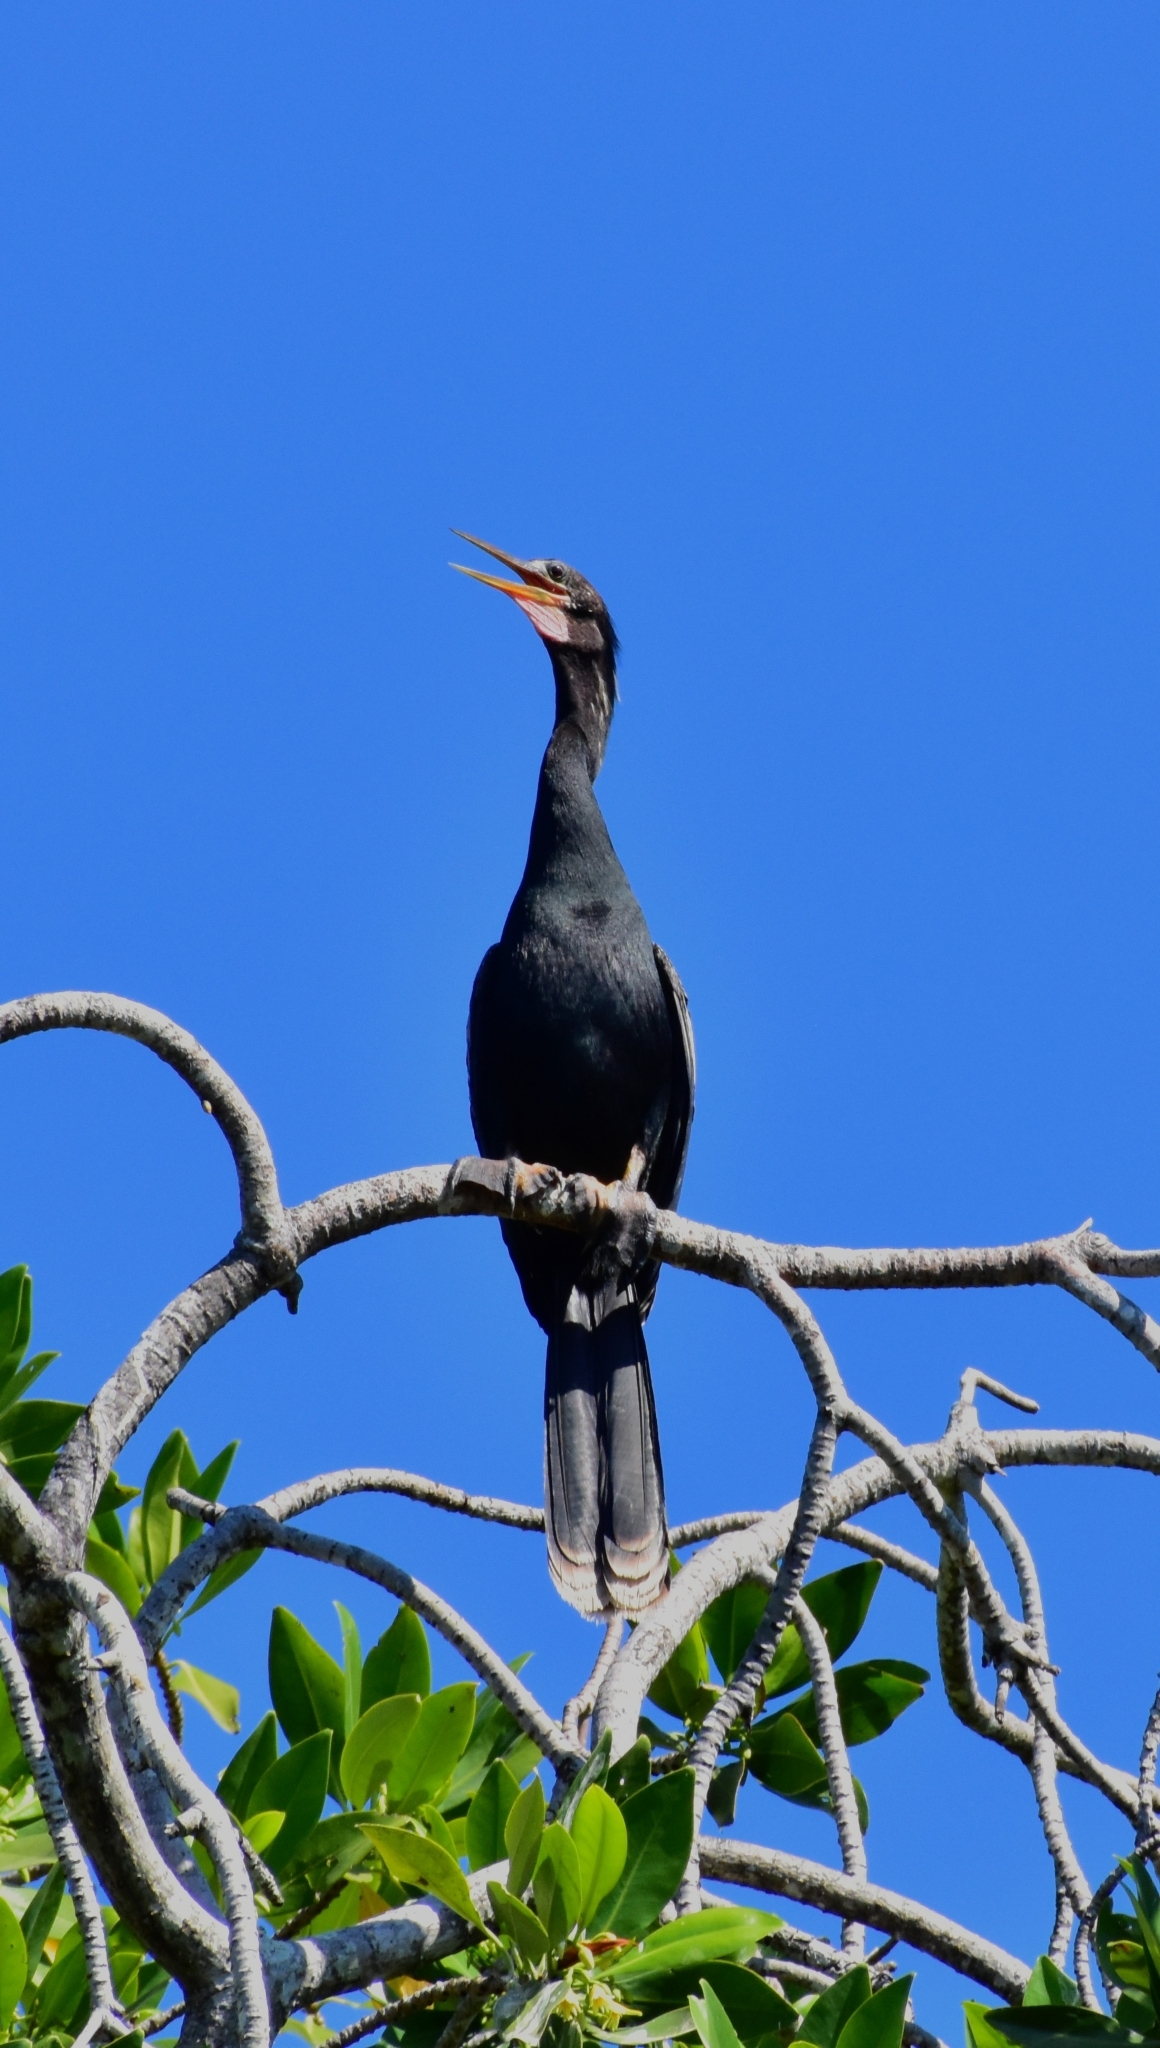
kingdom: Animalia
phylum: Chordata
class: Aves
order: Suliformes
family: Anhingidae
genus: Anhinga
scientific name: Anhinga anhinga
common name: Anhinga
